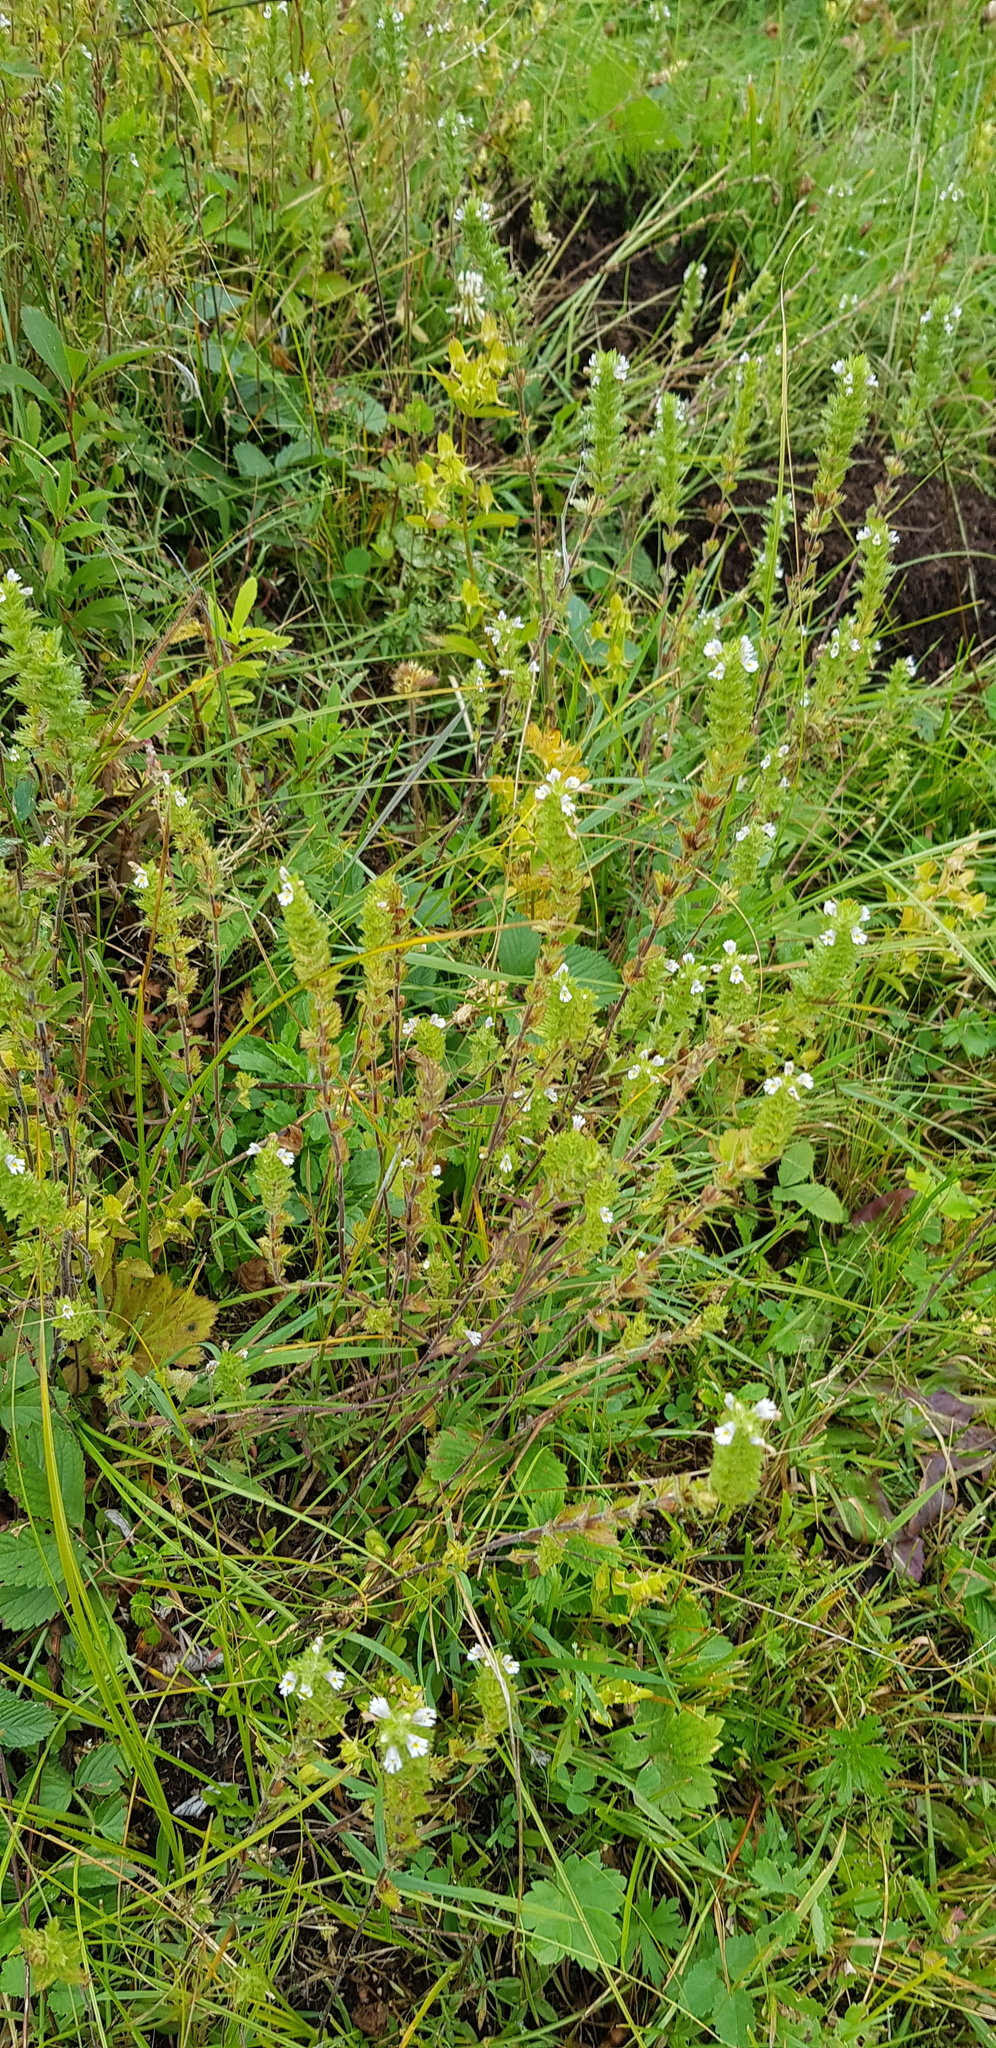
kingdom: Plantae
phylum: Tracheophyta
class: Magnoliopsida
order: Lamiales
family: Orobanchaceae
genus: Euphrasia
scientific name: Euphrasia pectinata
